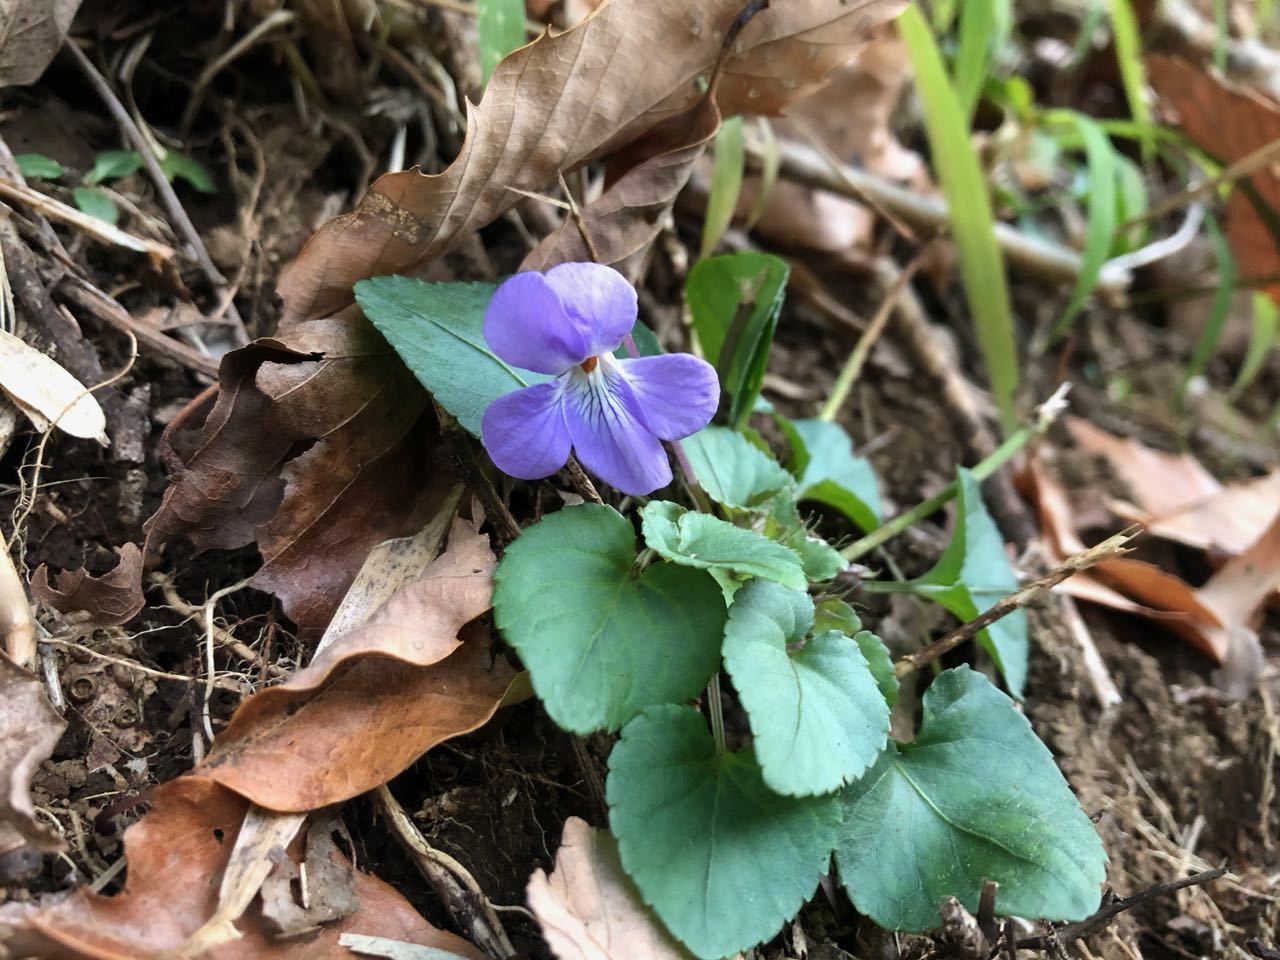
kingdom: Plantae
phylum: Tracheophyta
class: Magnoliopsida
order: Malpighiales
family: Violaceae
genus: Viola
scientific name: Viola grypoceras
